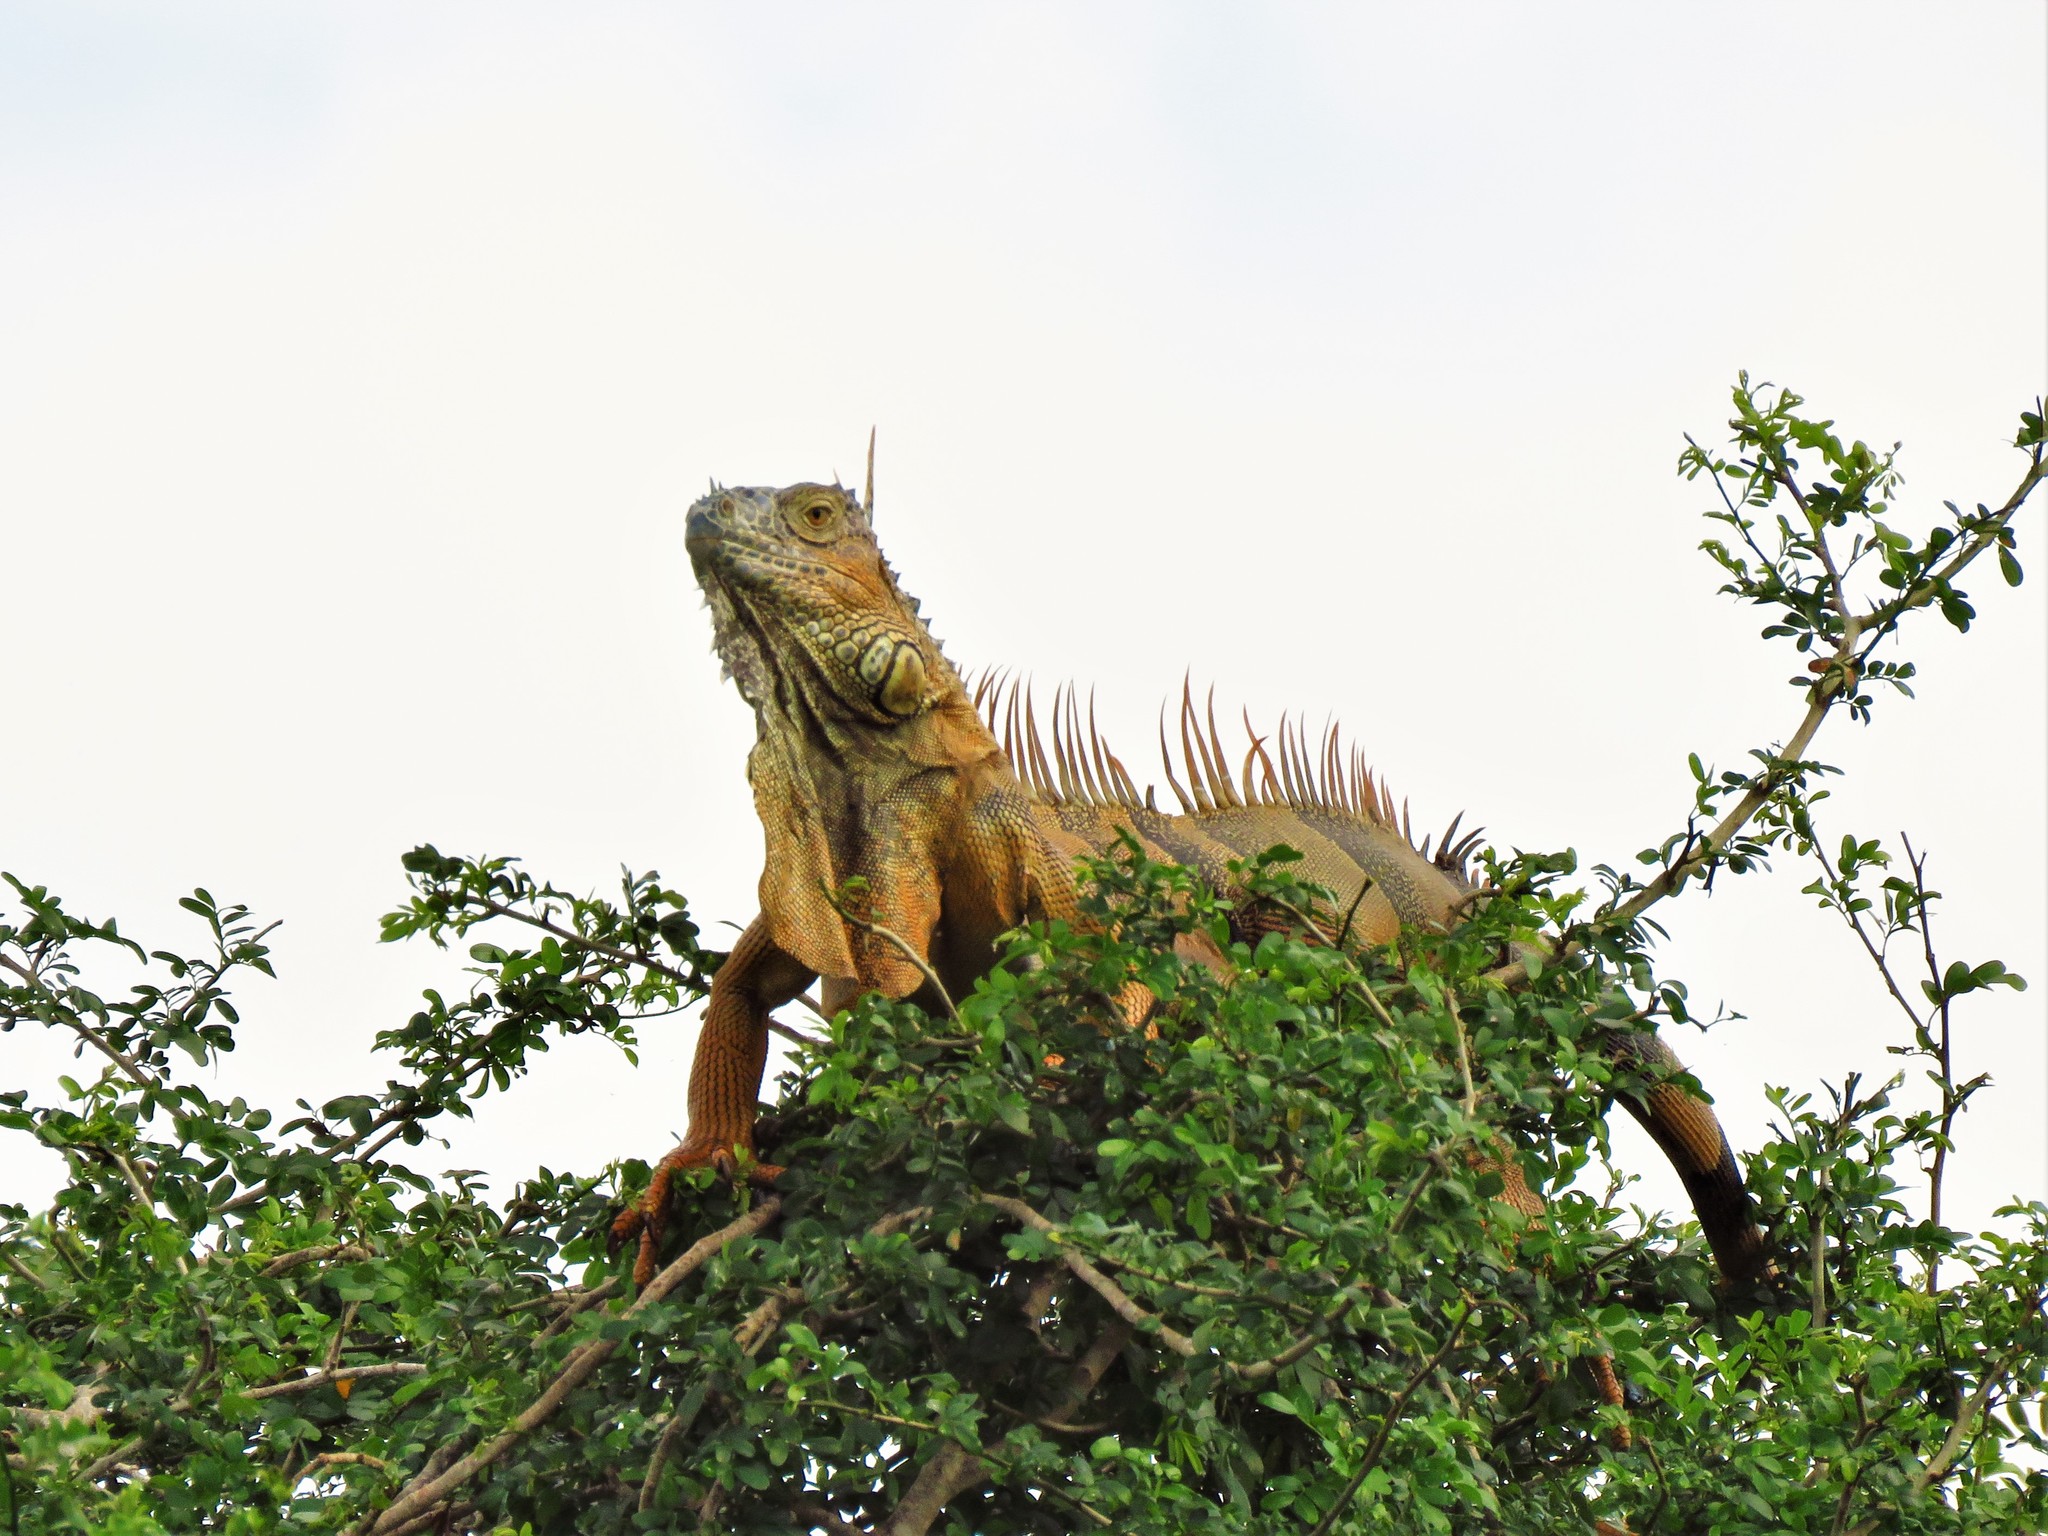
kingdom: Animalia
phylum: Chordata
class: Squamata
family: Iguanidae
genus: Iguana
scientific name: Iguana iguana
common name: Green iguana
